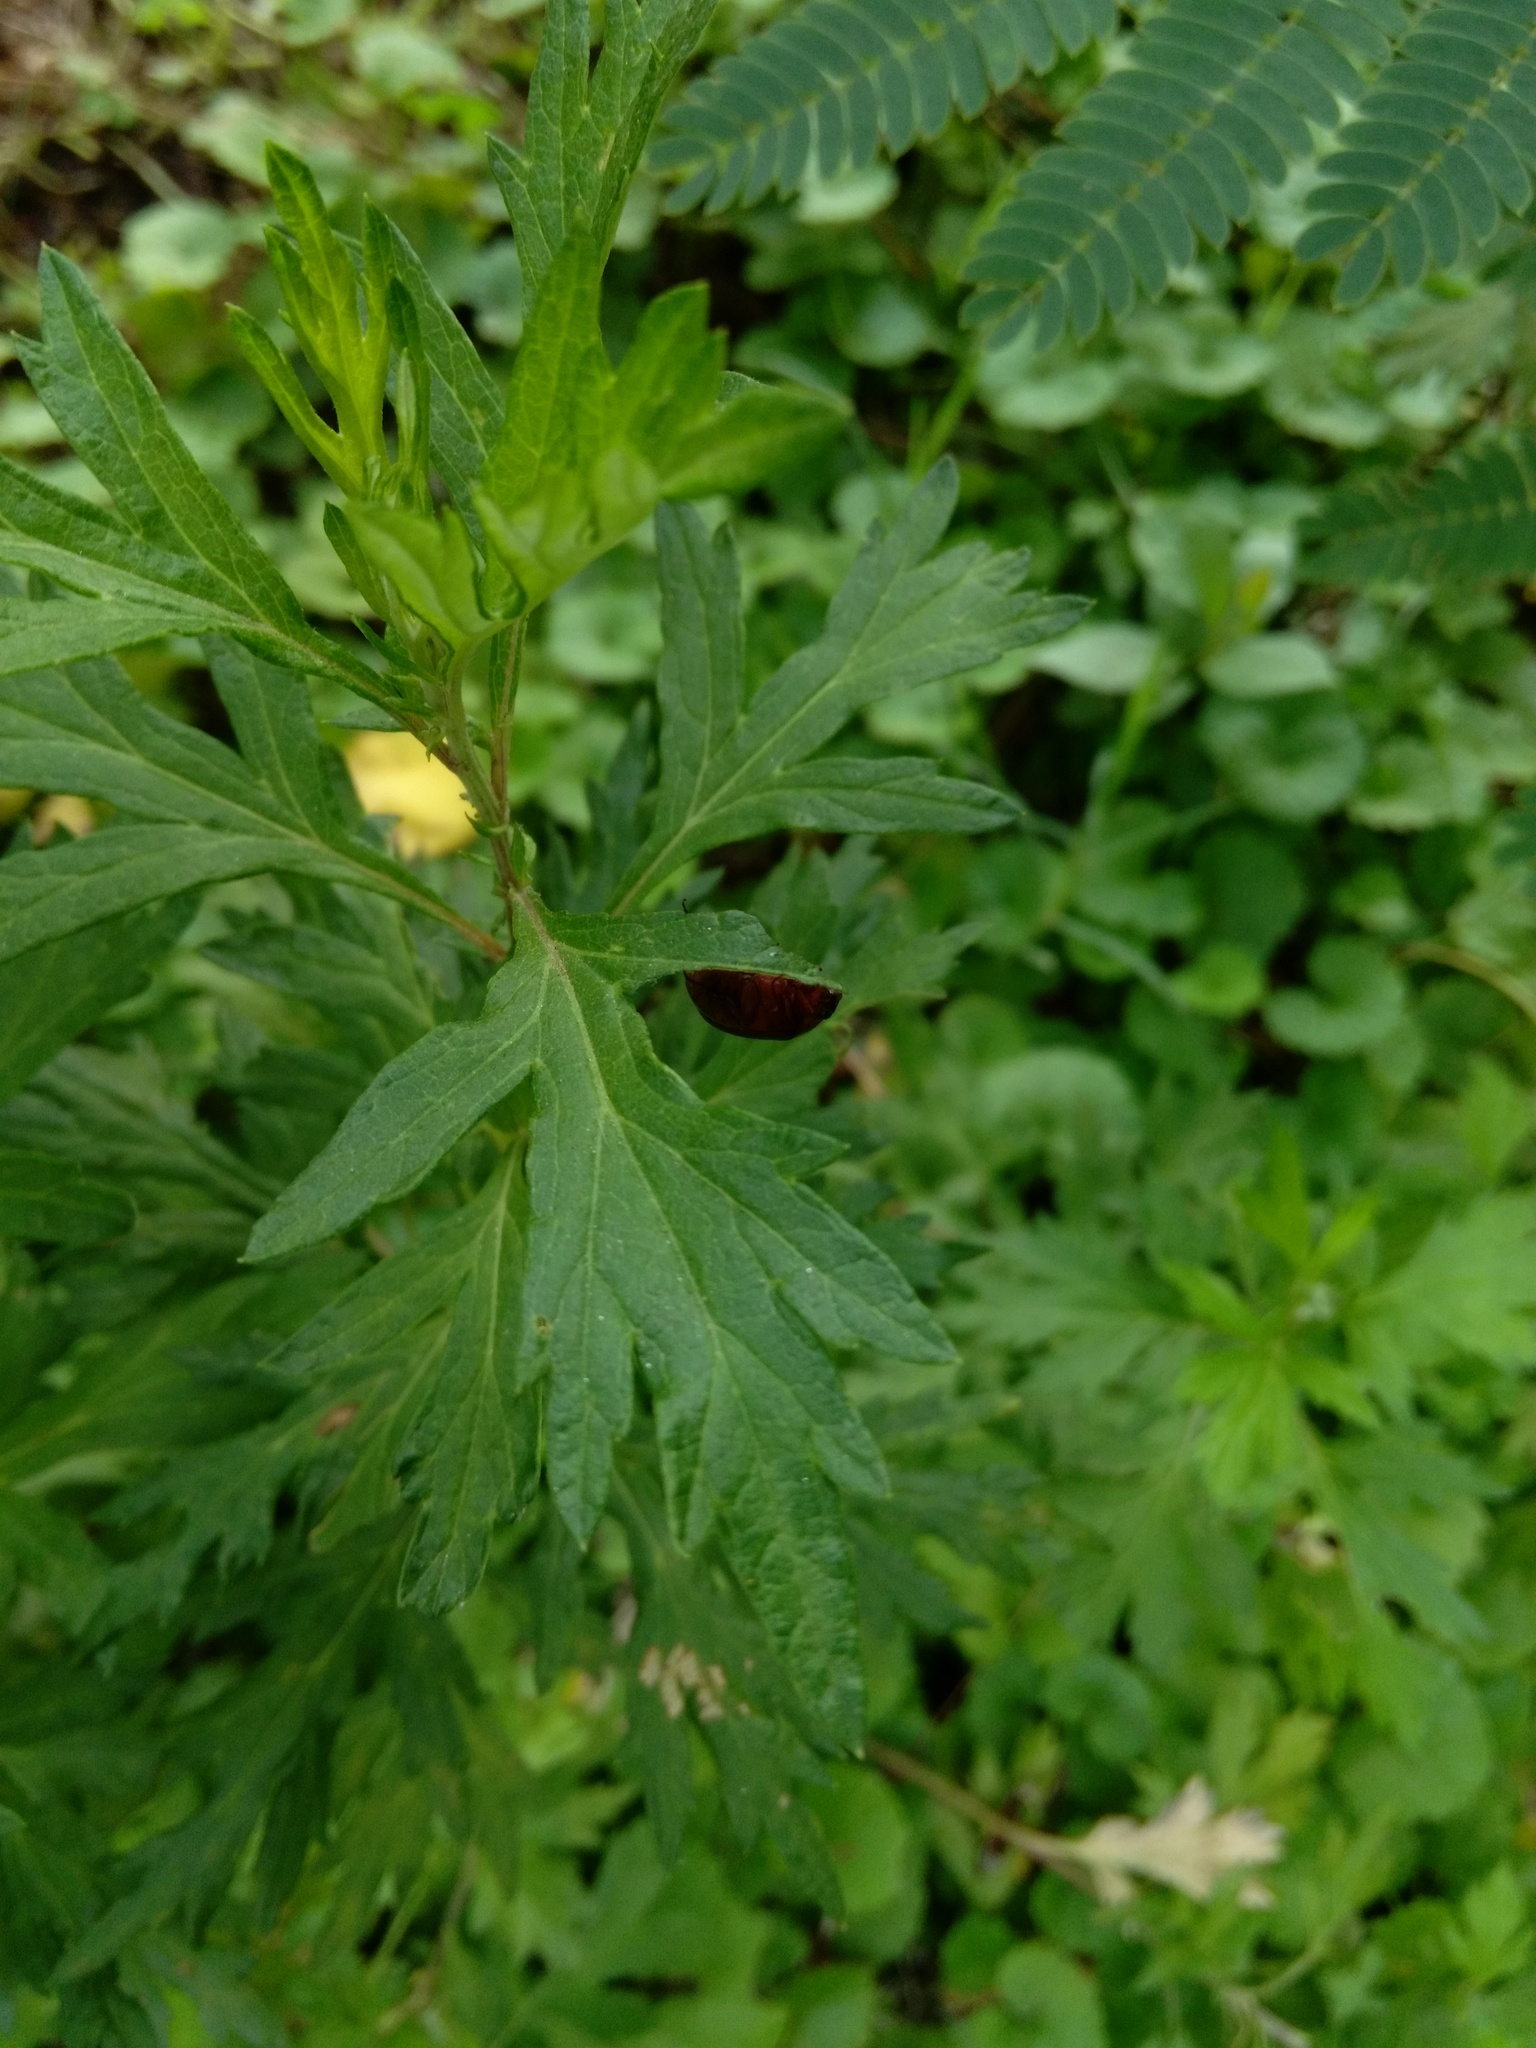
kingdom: Plantae
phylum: Tracheophyta
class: Magnoliopsida
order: Asterales
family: Asteraceae
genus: Artemisia
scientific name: Artemisia vulgaris
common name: Mugwort
